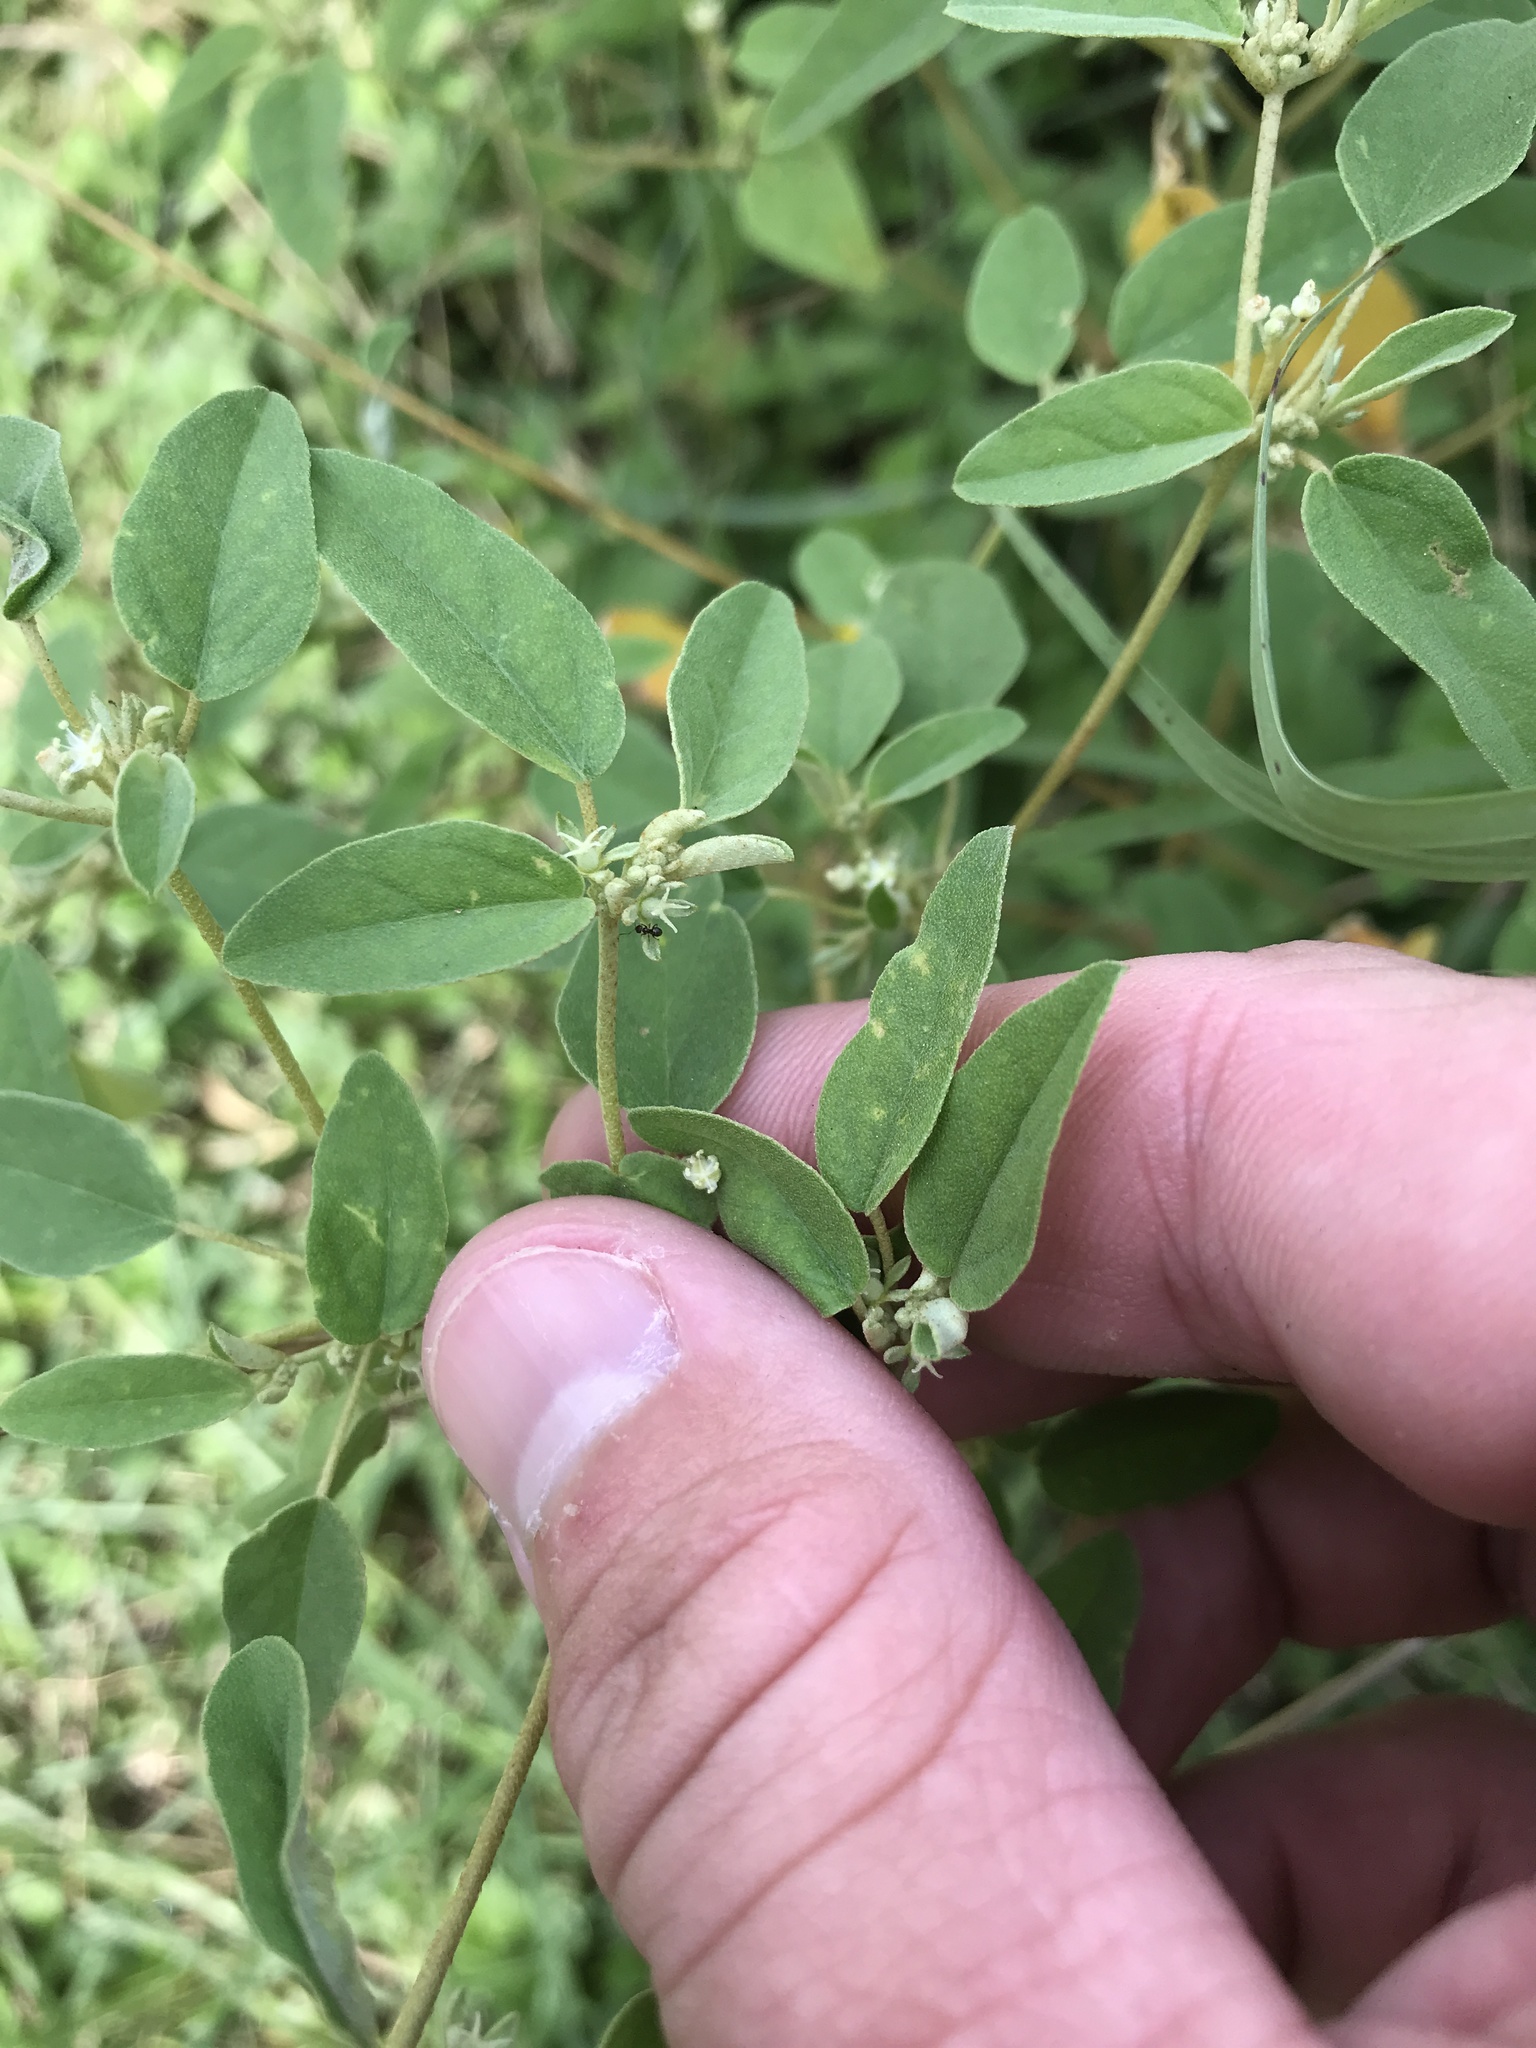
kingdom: Plantae
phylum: Tracheophyta
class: Magnoliopsida
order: Malpighiales
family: Euphorbiaceae
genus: Croton
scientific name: Croton monanthogynus
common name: One-seed croton
